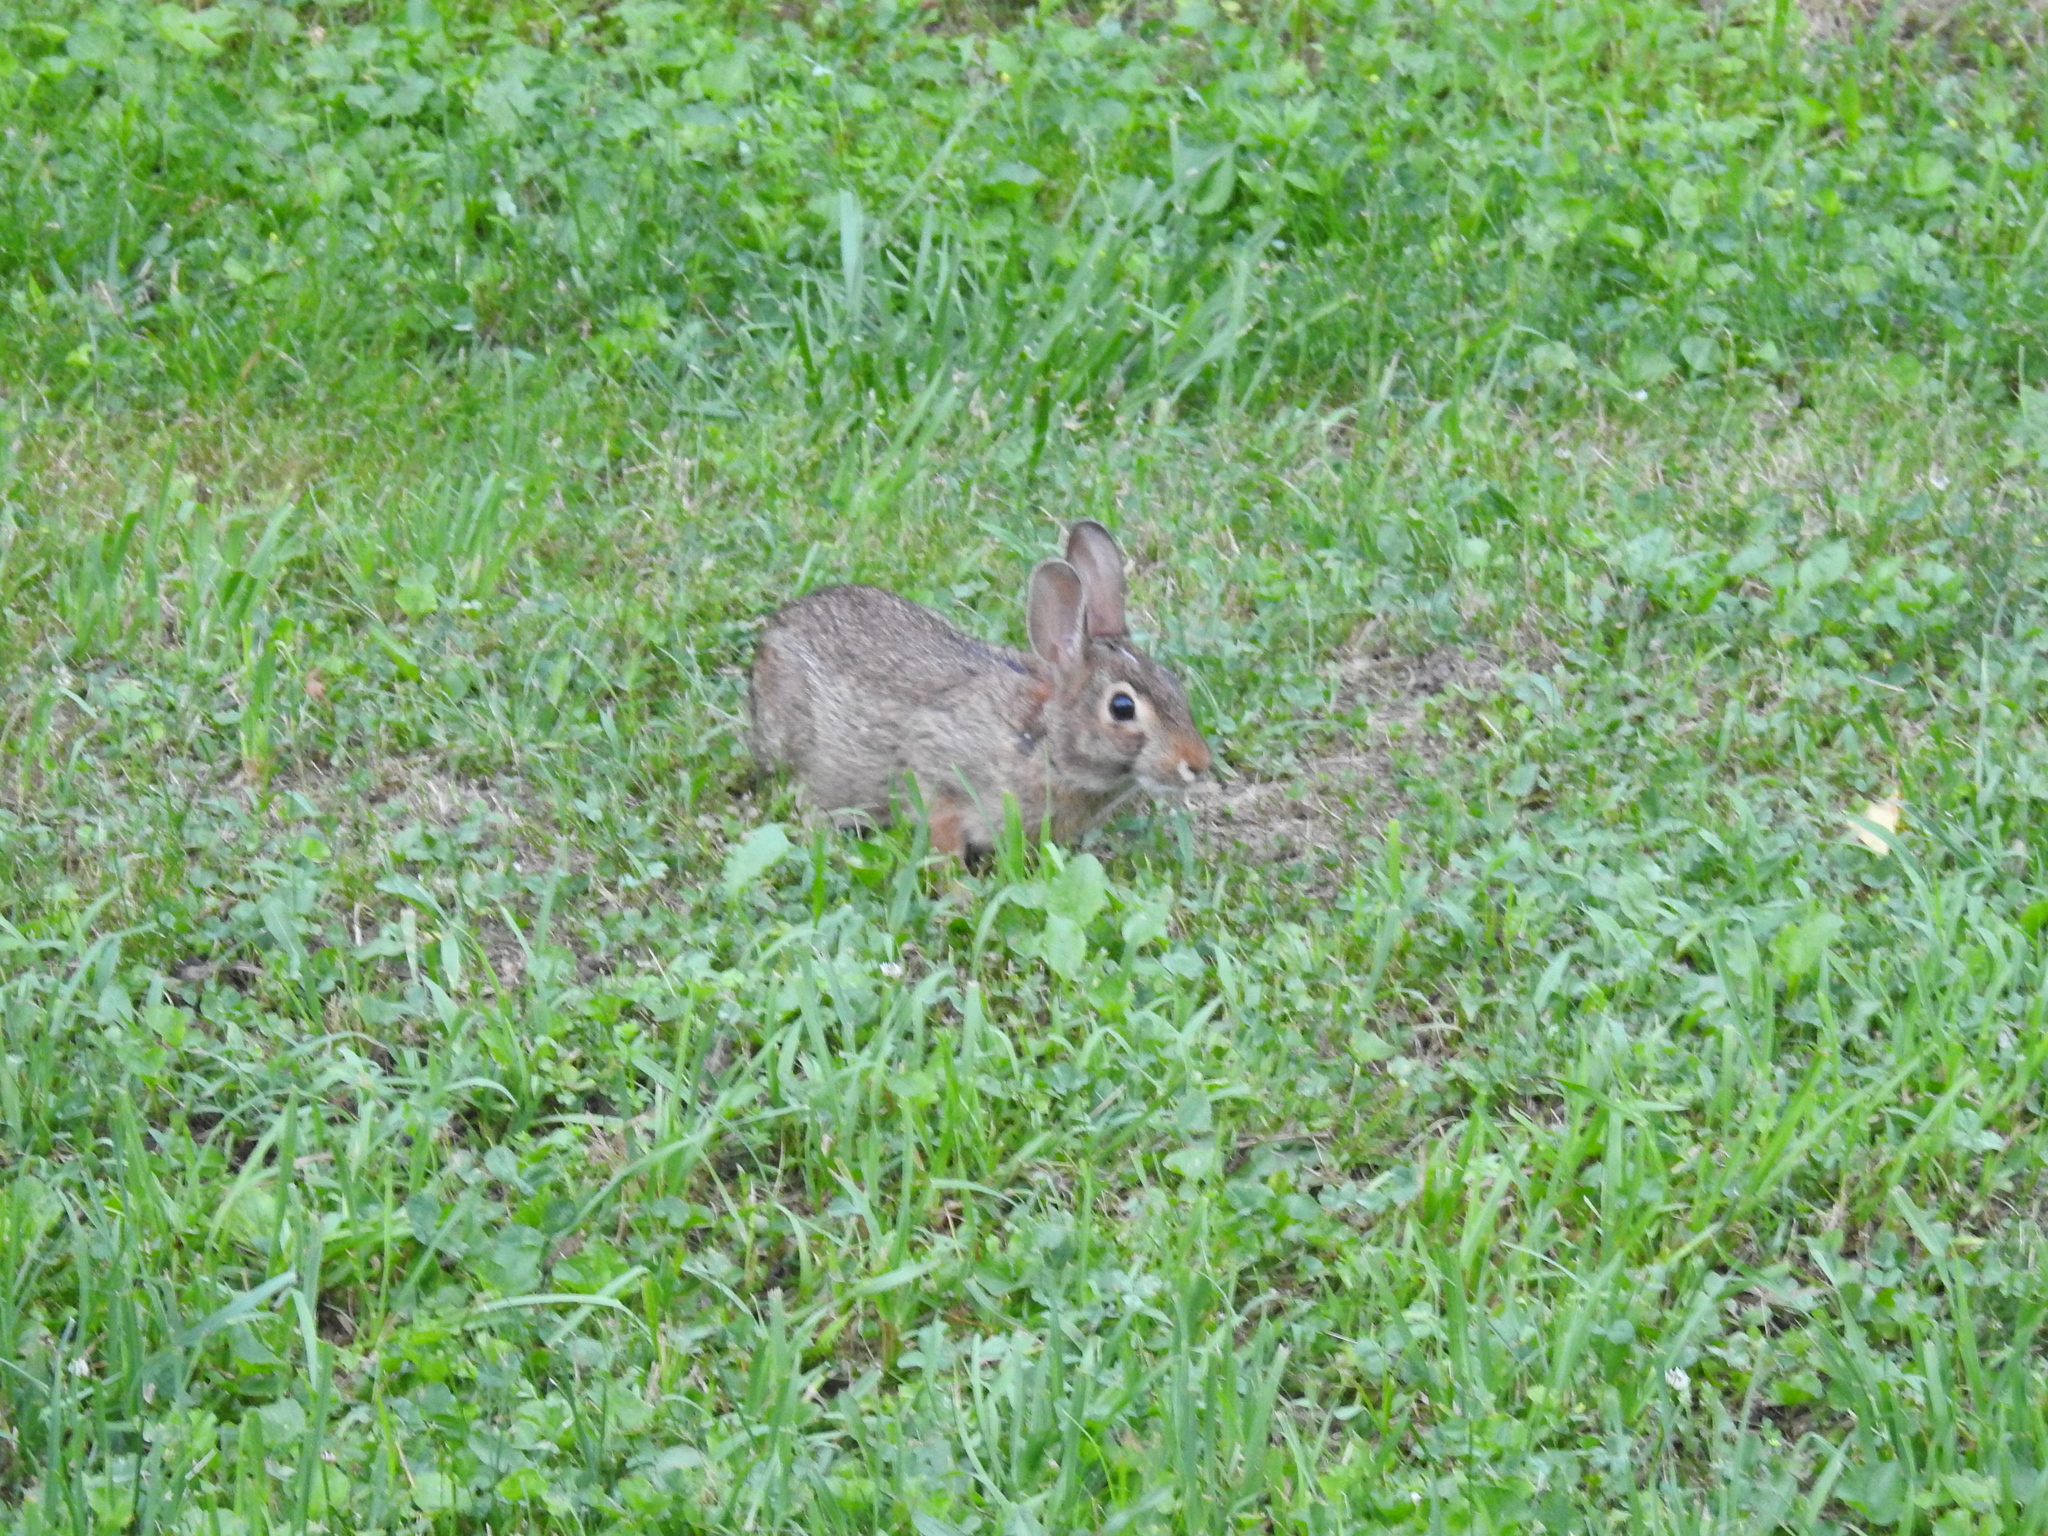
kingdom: Animalia
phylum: Chordata
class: Mammalia
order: Lagomorpha
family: Leporidae
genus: Sylvilagus
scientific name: Sylvilagus floridanus
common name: Eastern cottontail
